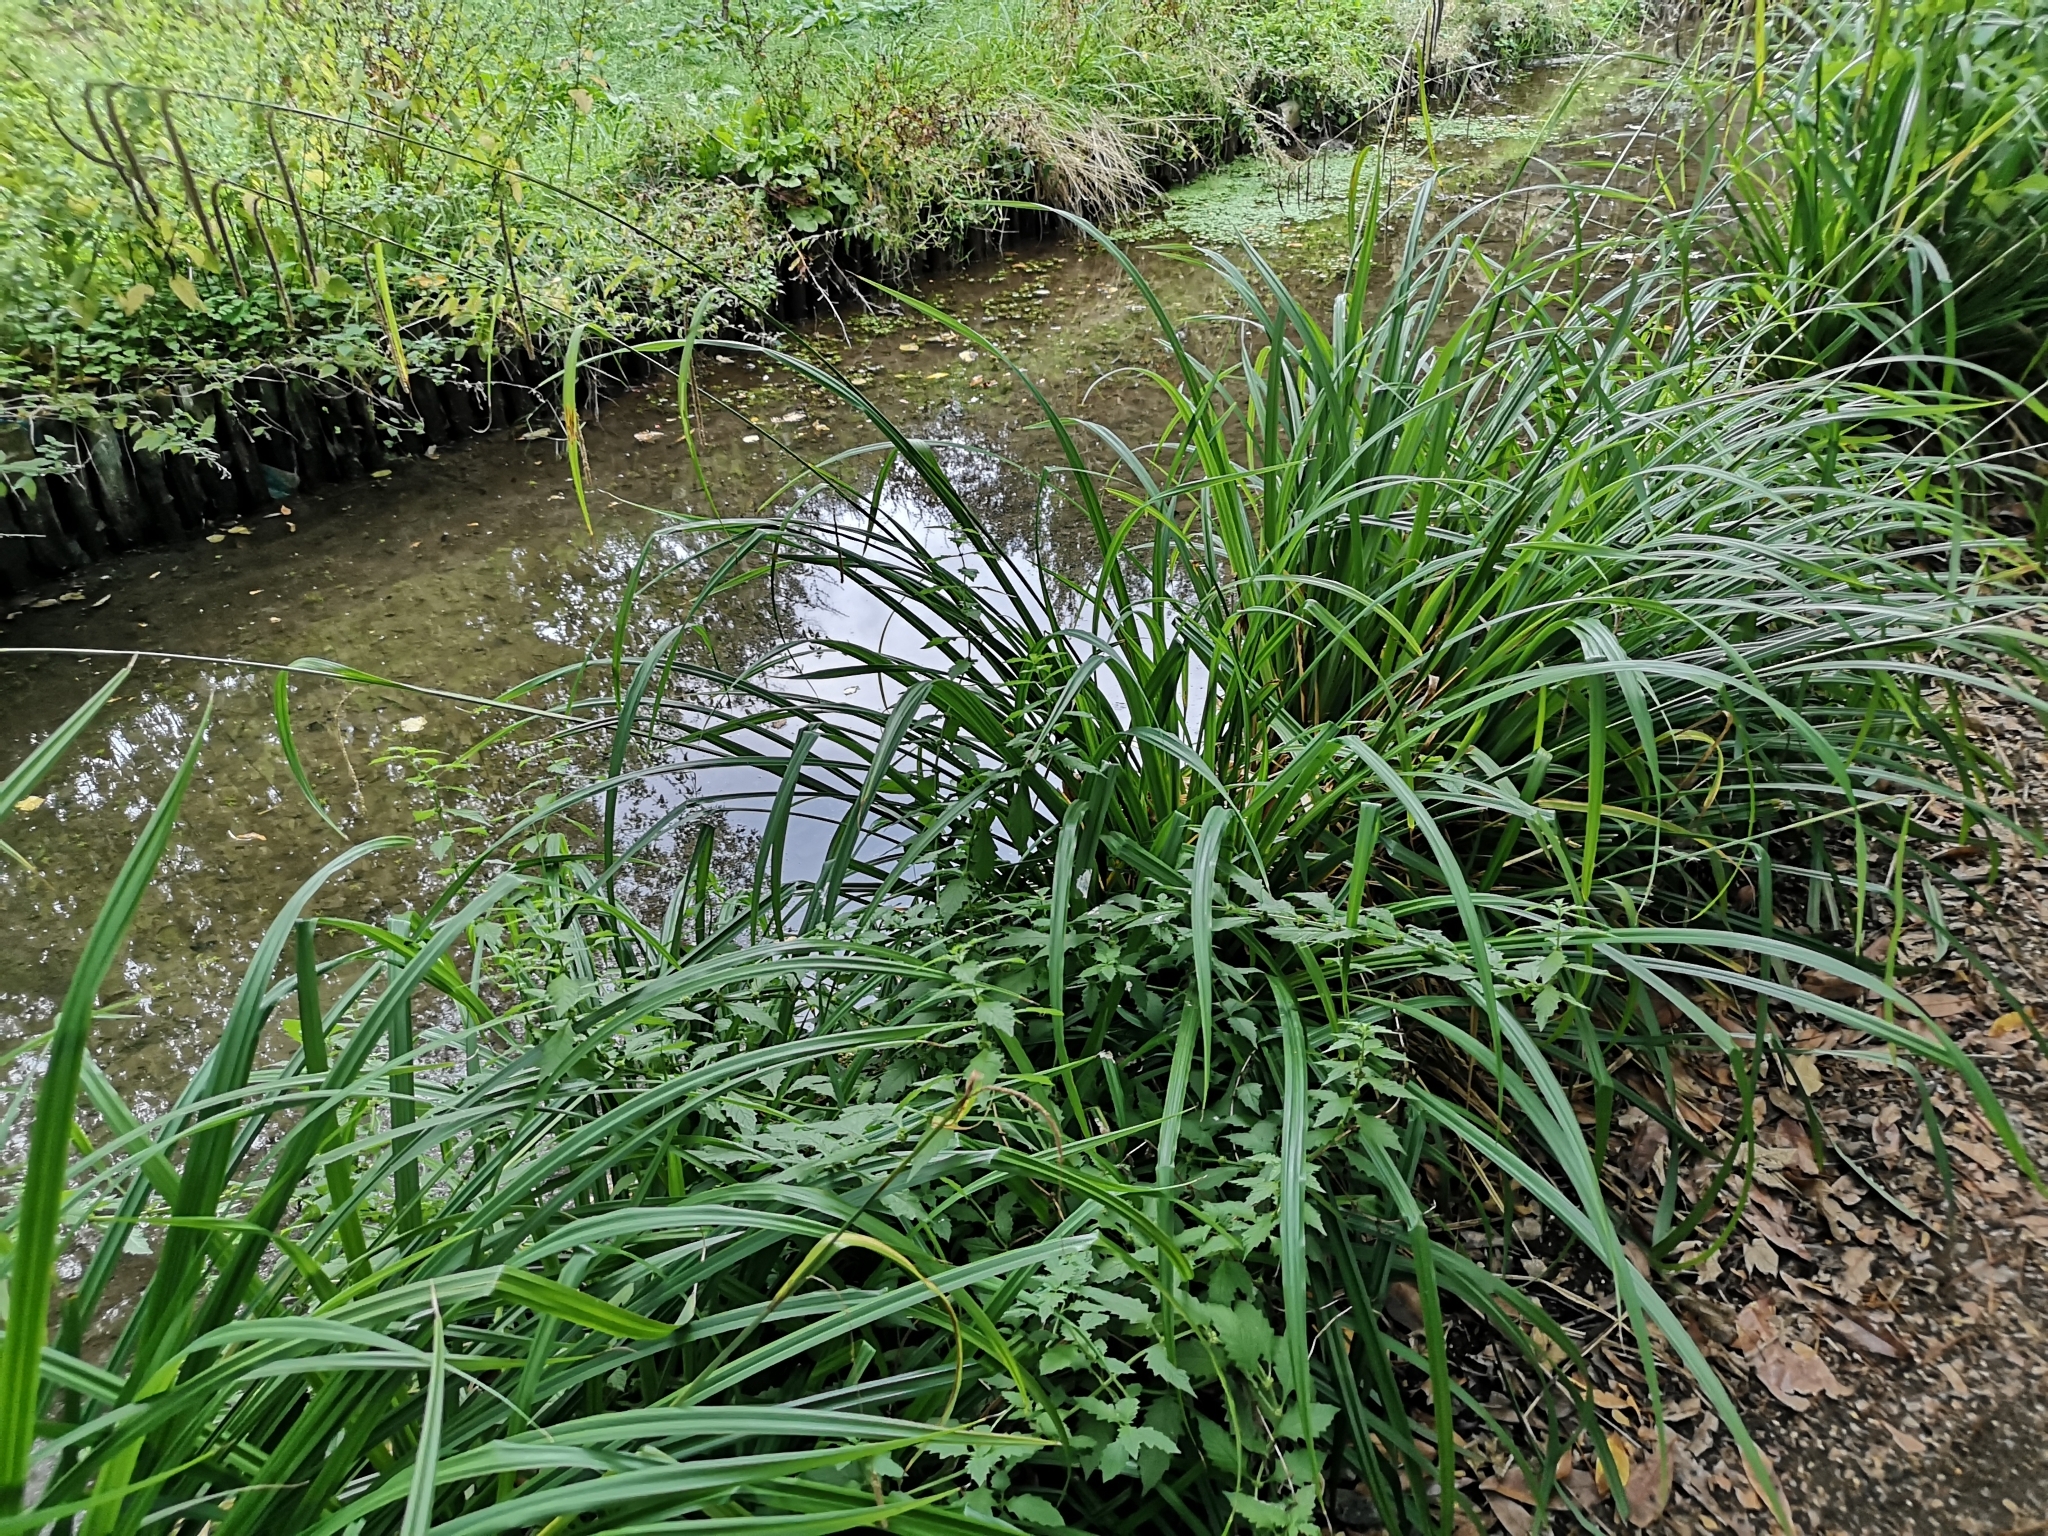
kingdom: Plantae
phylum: Tracheophyta
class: Liliopsida
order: Poales
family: Cyperaceae
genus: Carex
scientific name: Carex pendula
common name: Pendulous sedge
